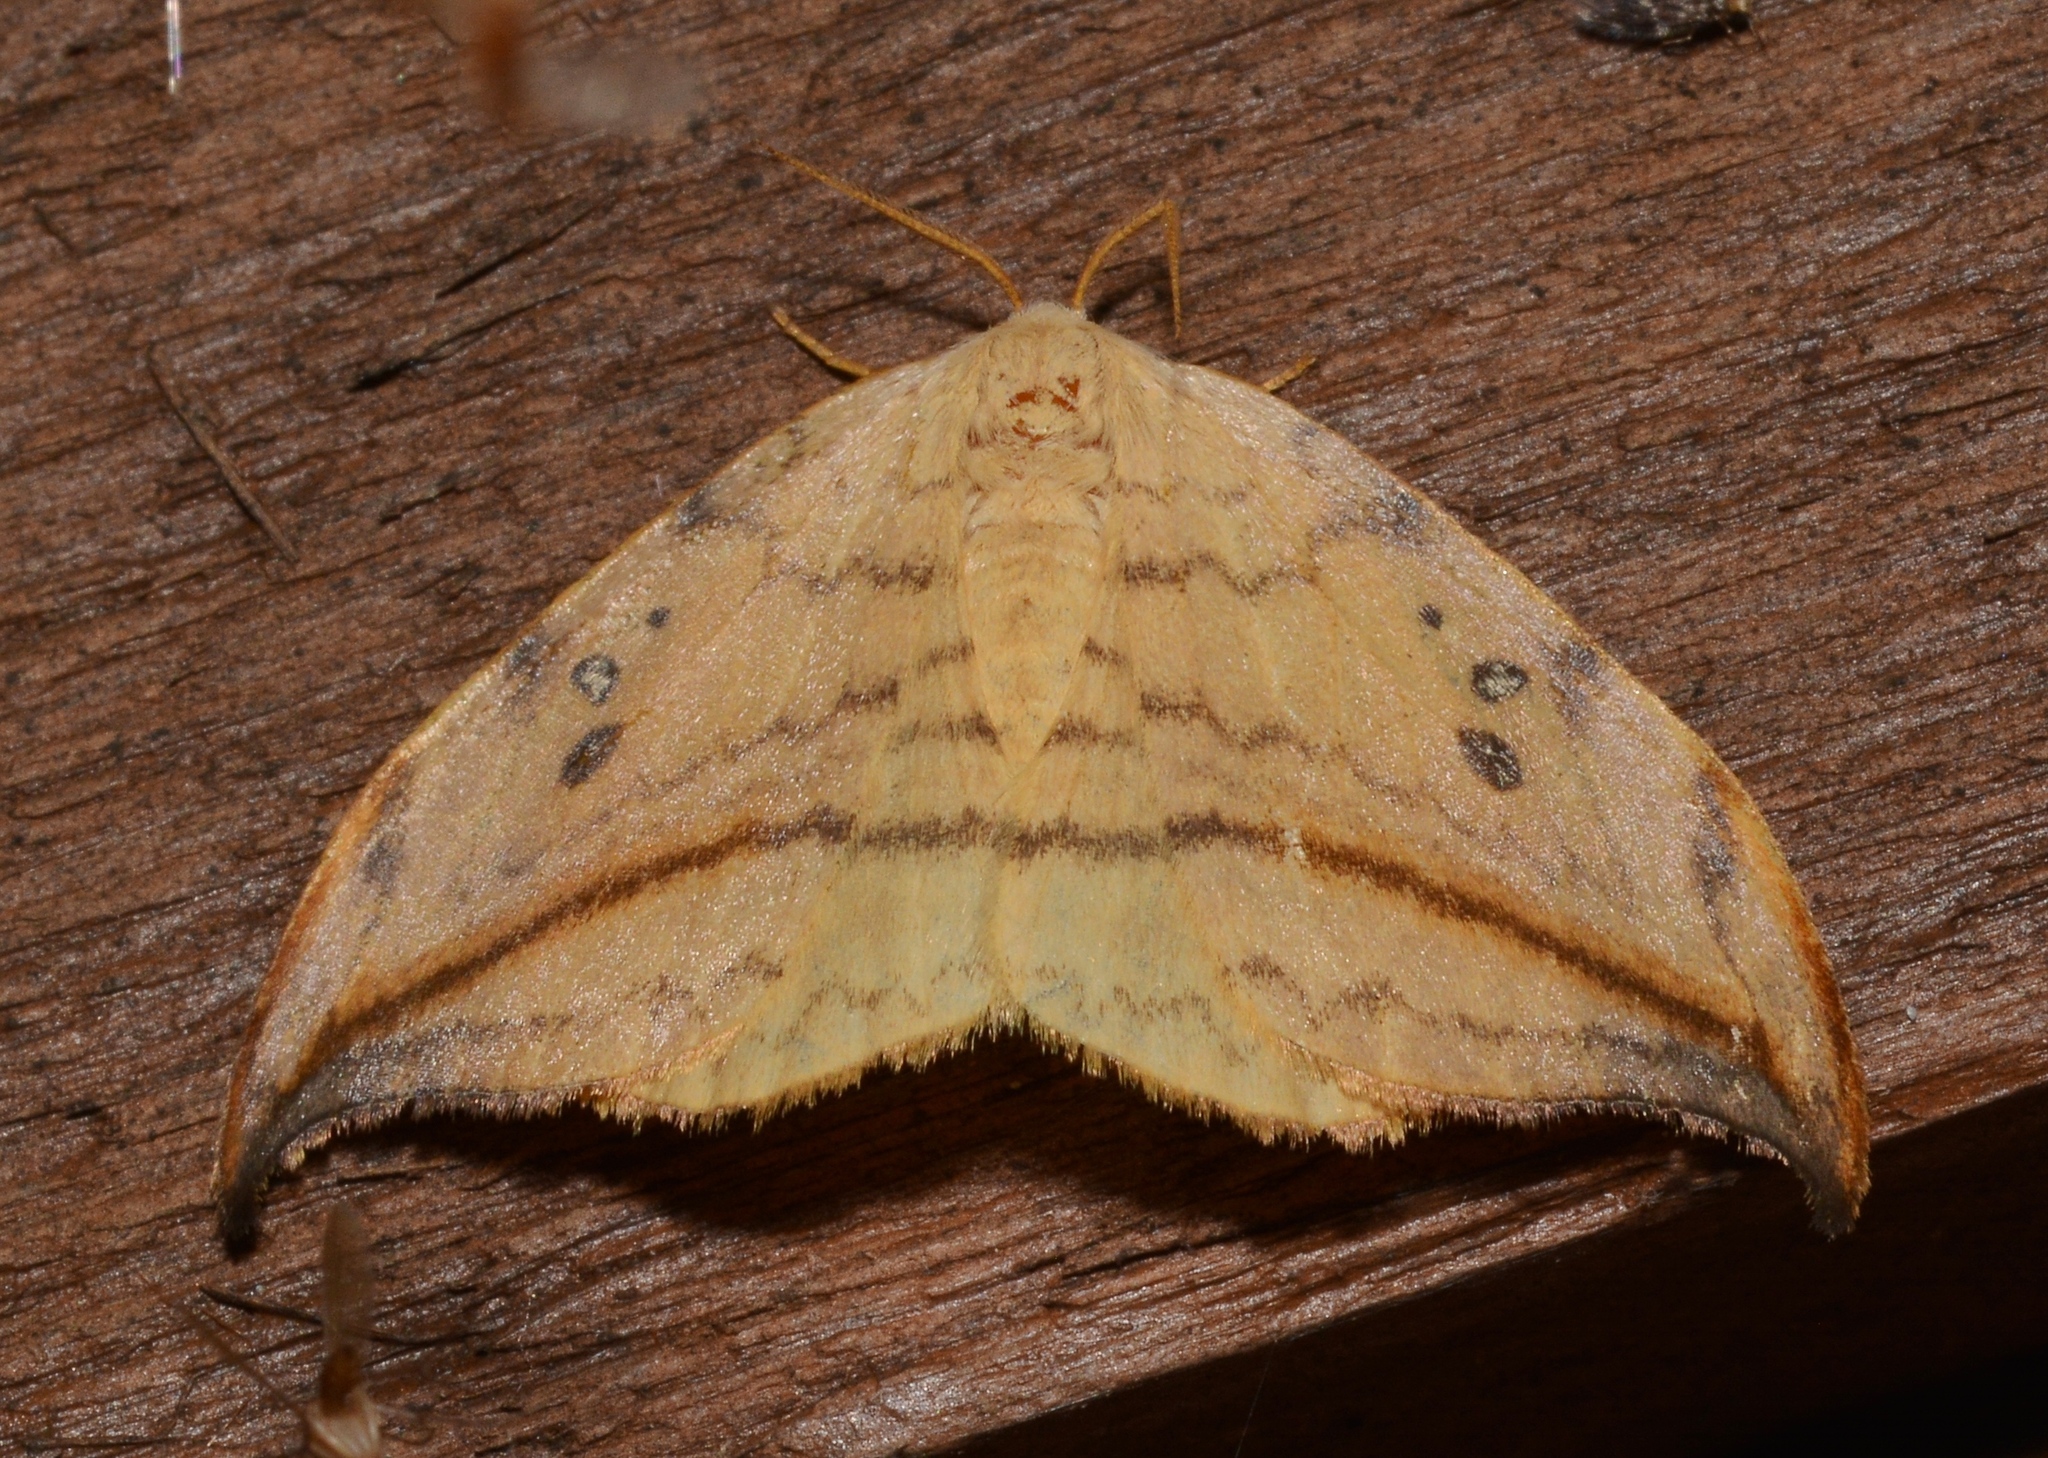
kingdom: Animalia
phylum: Arthropoda
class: Insecta
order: Lepidoptera
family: Drepanidae
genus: Drepana
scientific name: Drepana arcuata
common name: Arched hooktip moth
